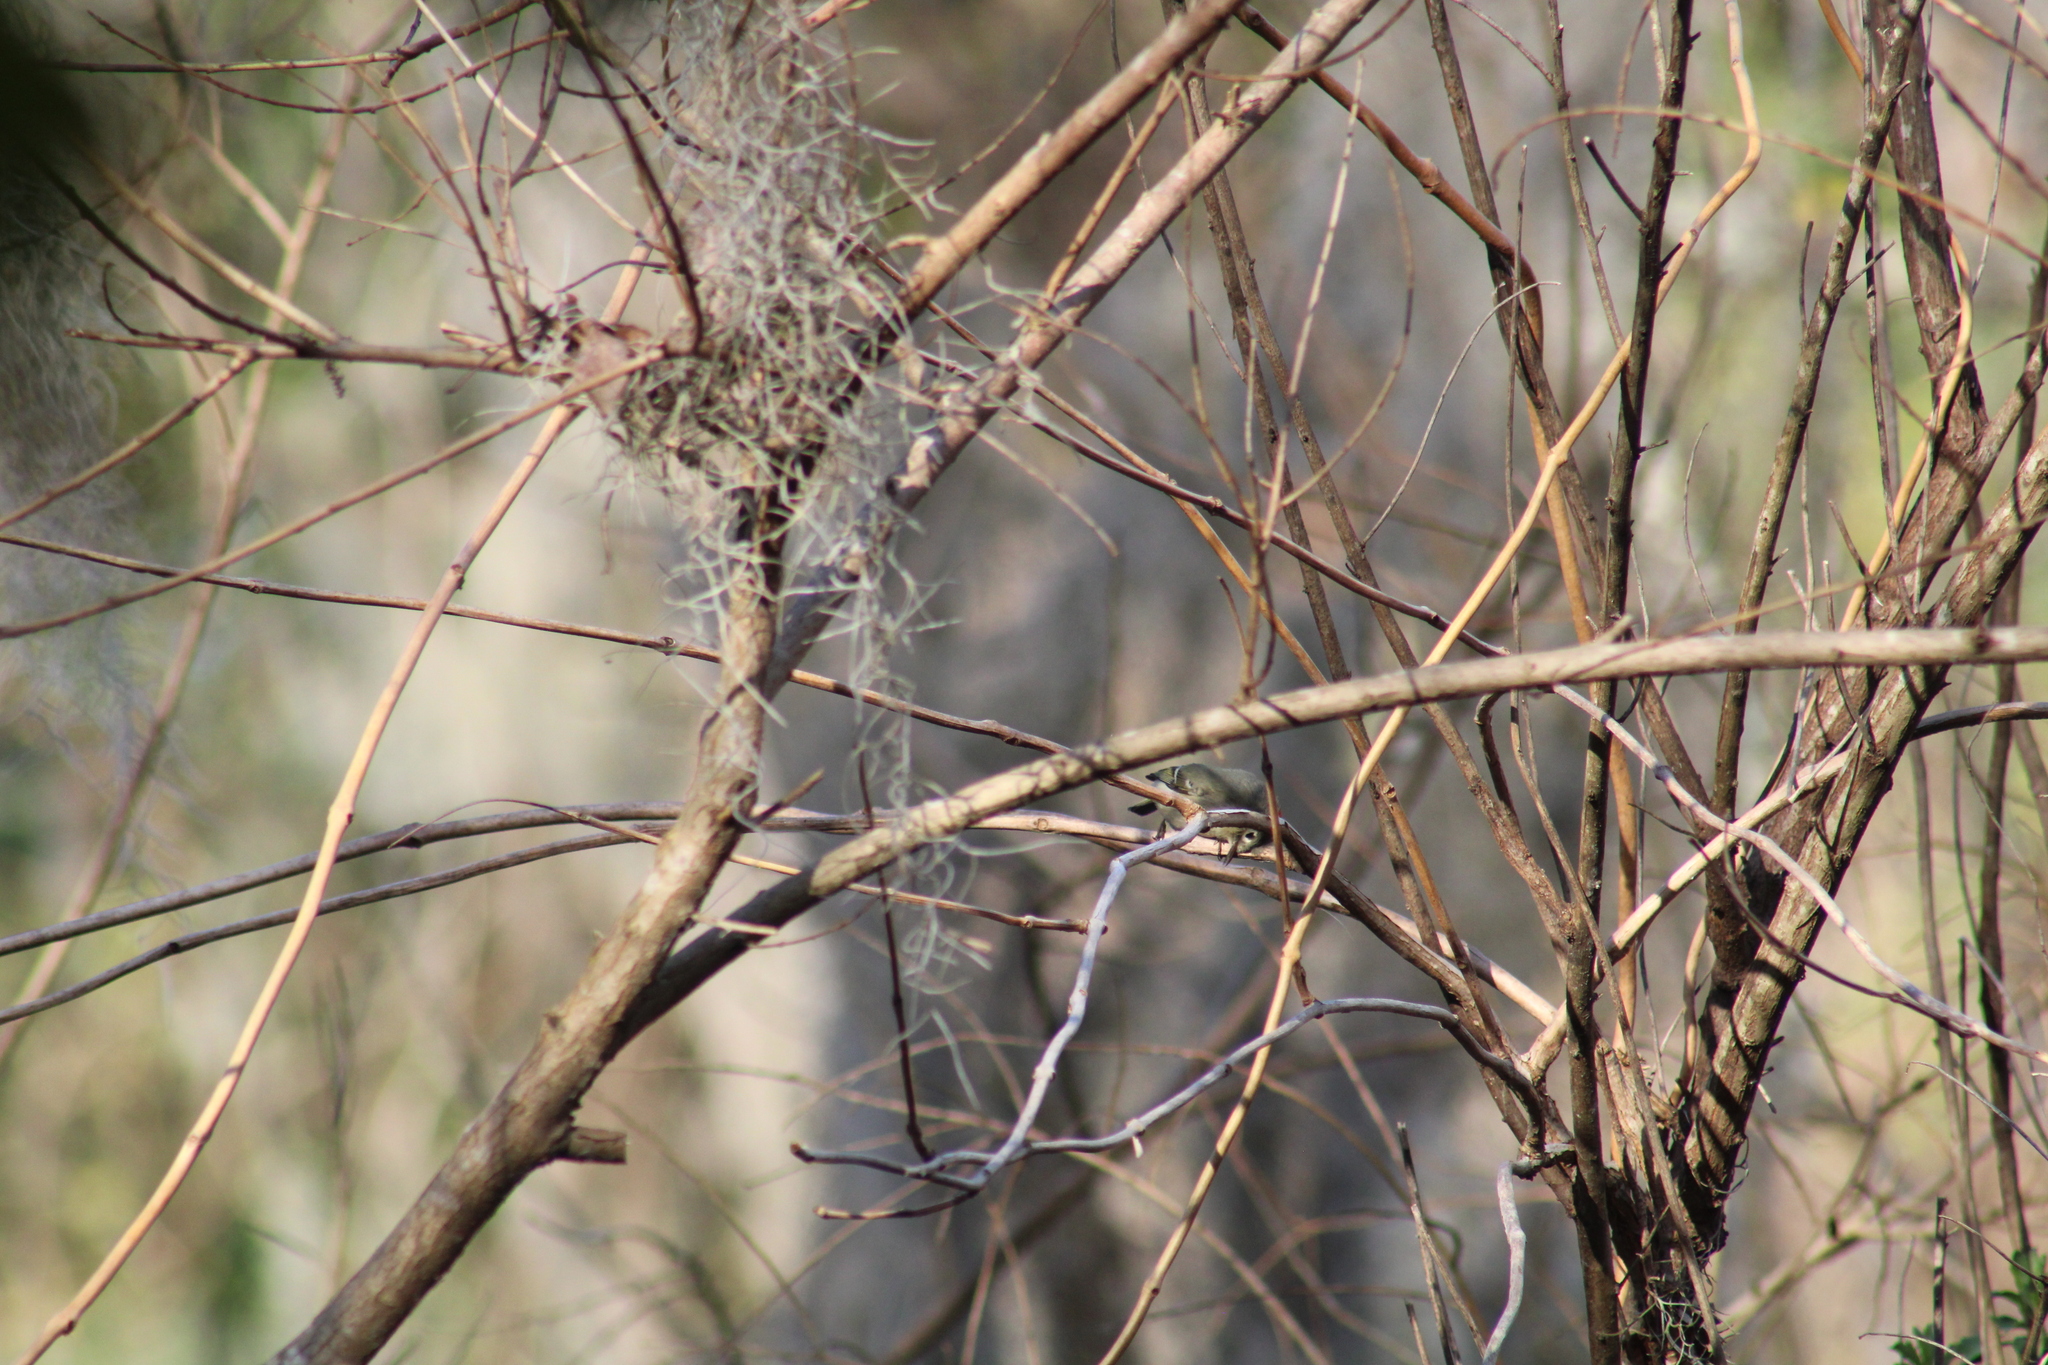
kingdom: Animalia
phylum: Chordata
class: Aves
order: Passeriformes
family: Regulidae
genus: Regulus
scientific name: Regulus calendula
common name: Ruby-crowned kinglet
